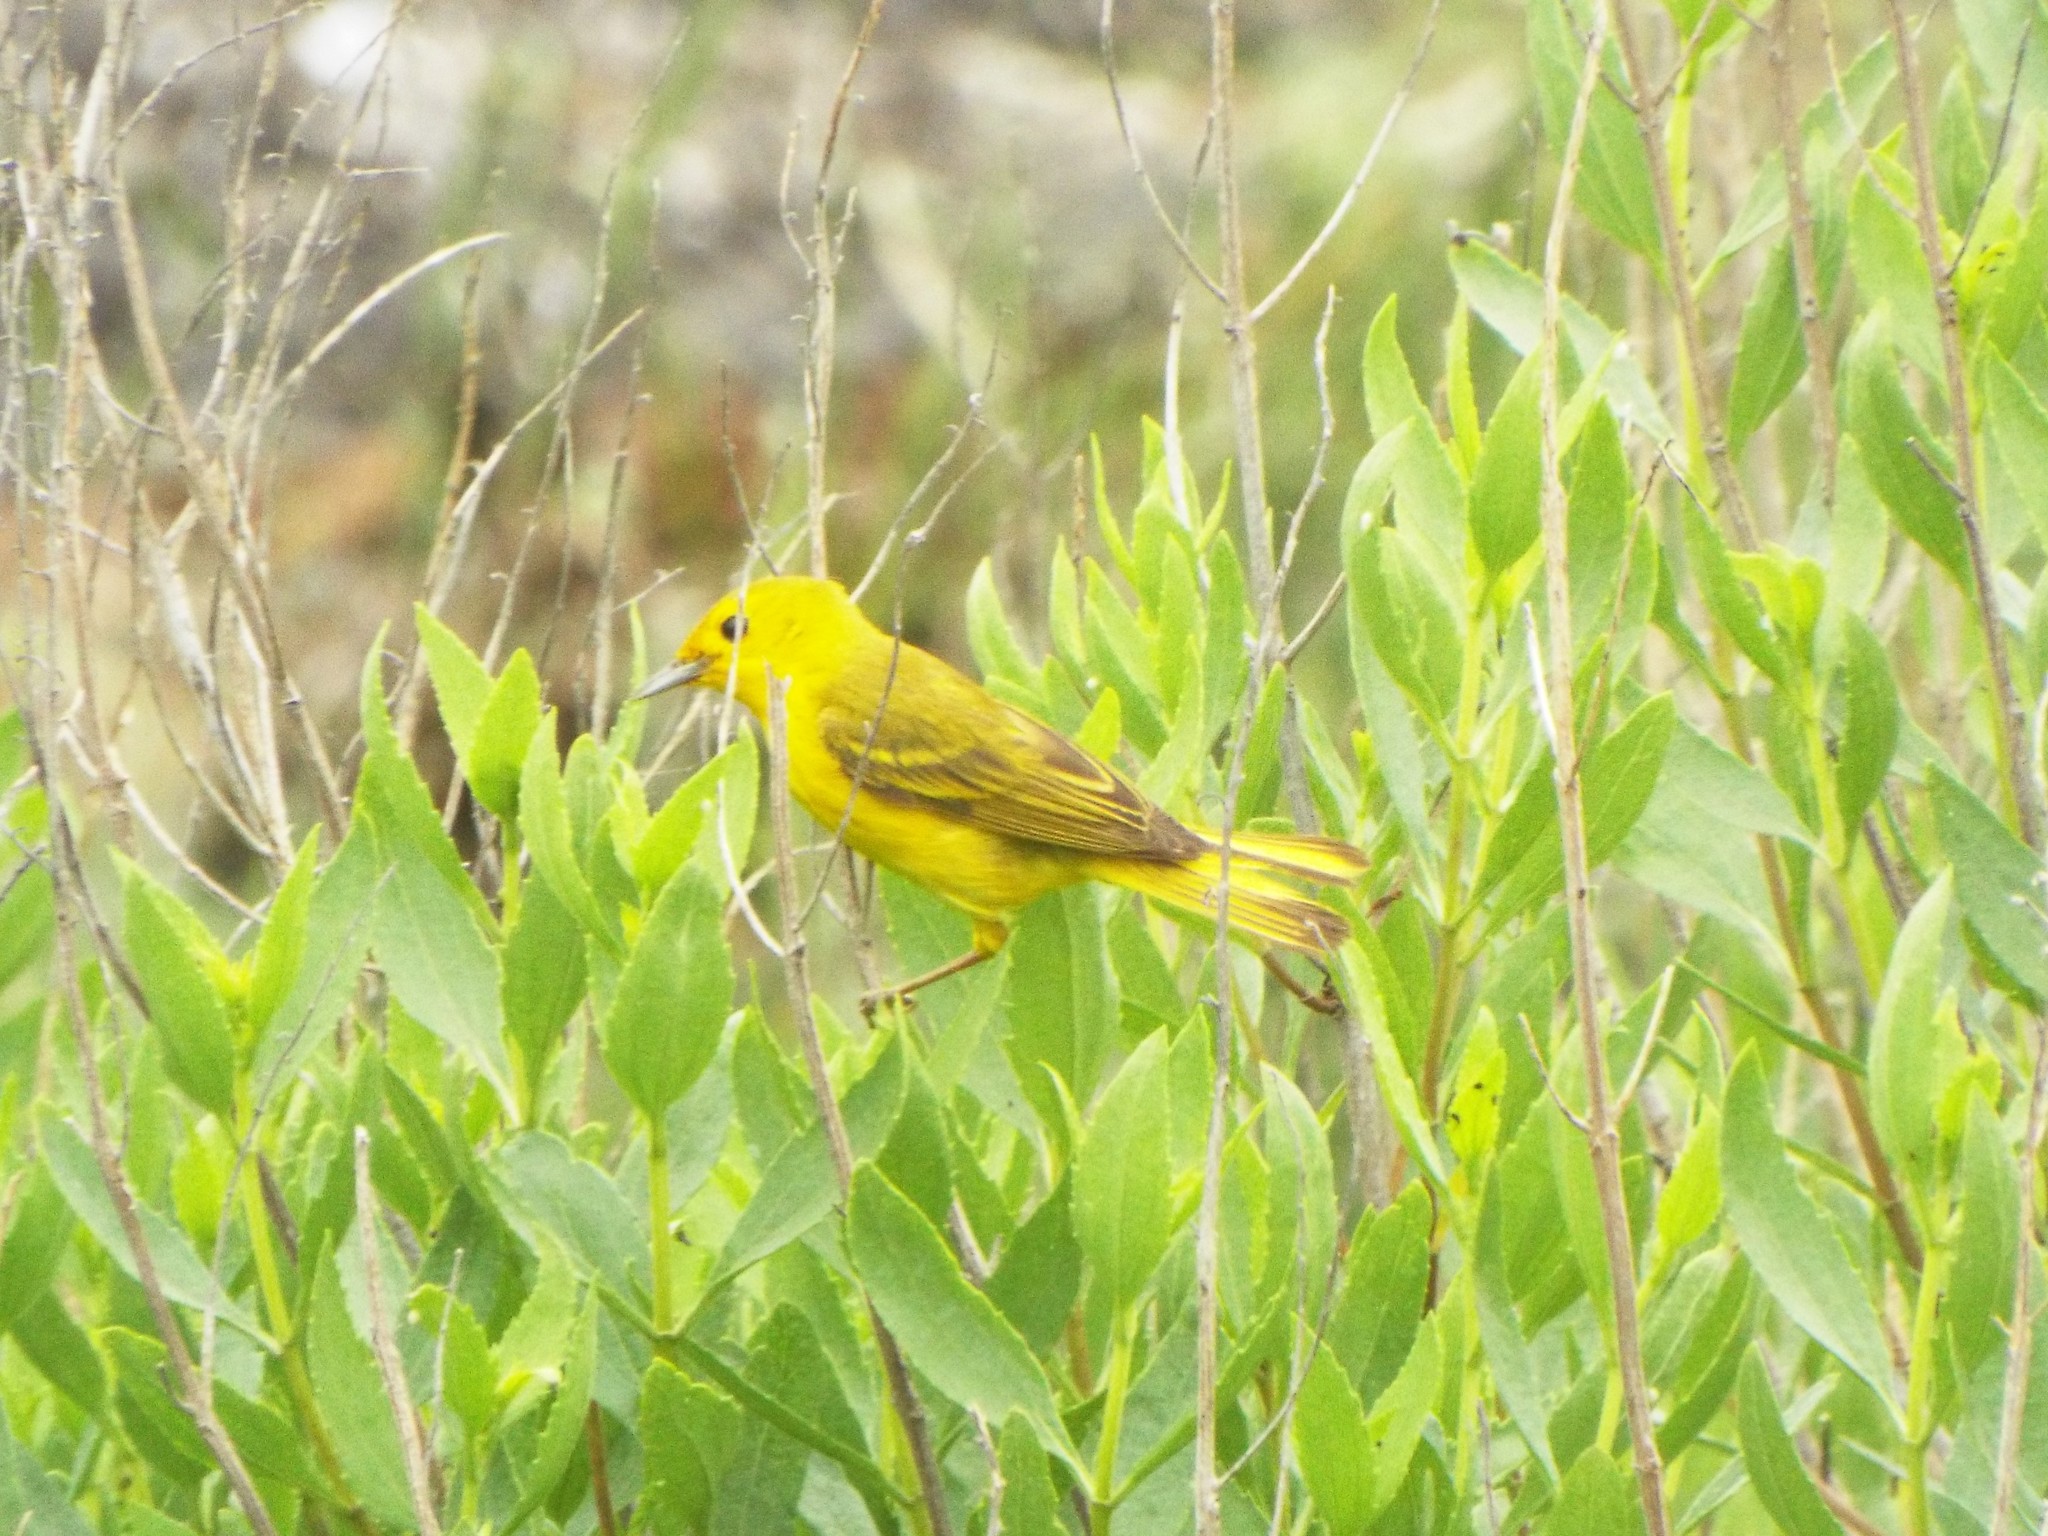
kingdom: Animalia
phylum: Chordata
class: Aves
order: Passeriformes
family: Parulidae
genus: Setophaga
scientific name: Setophaga petechia
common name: Yellow warbler
